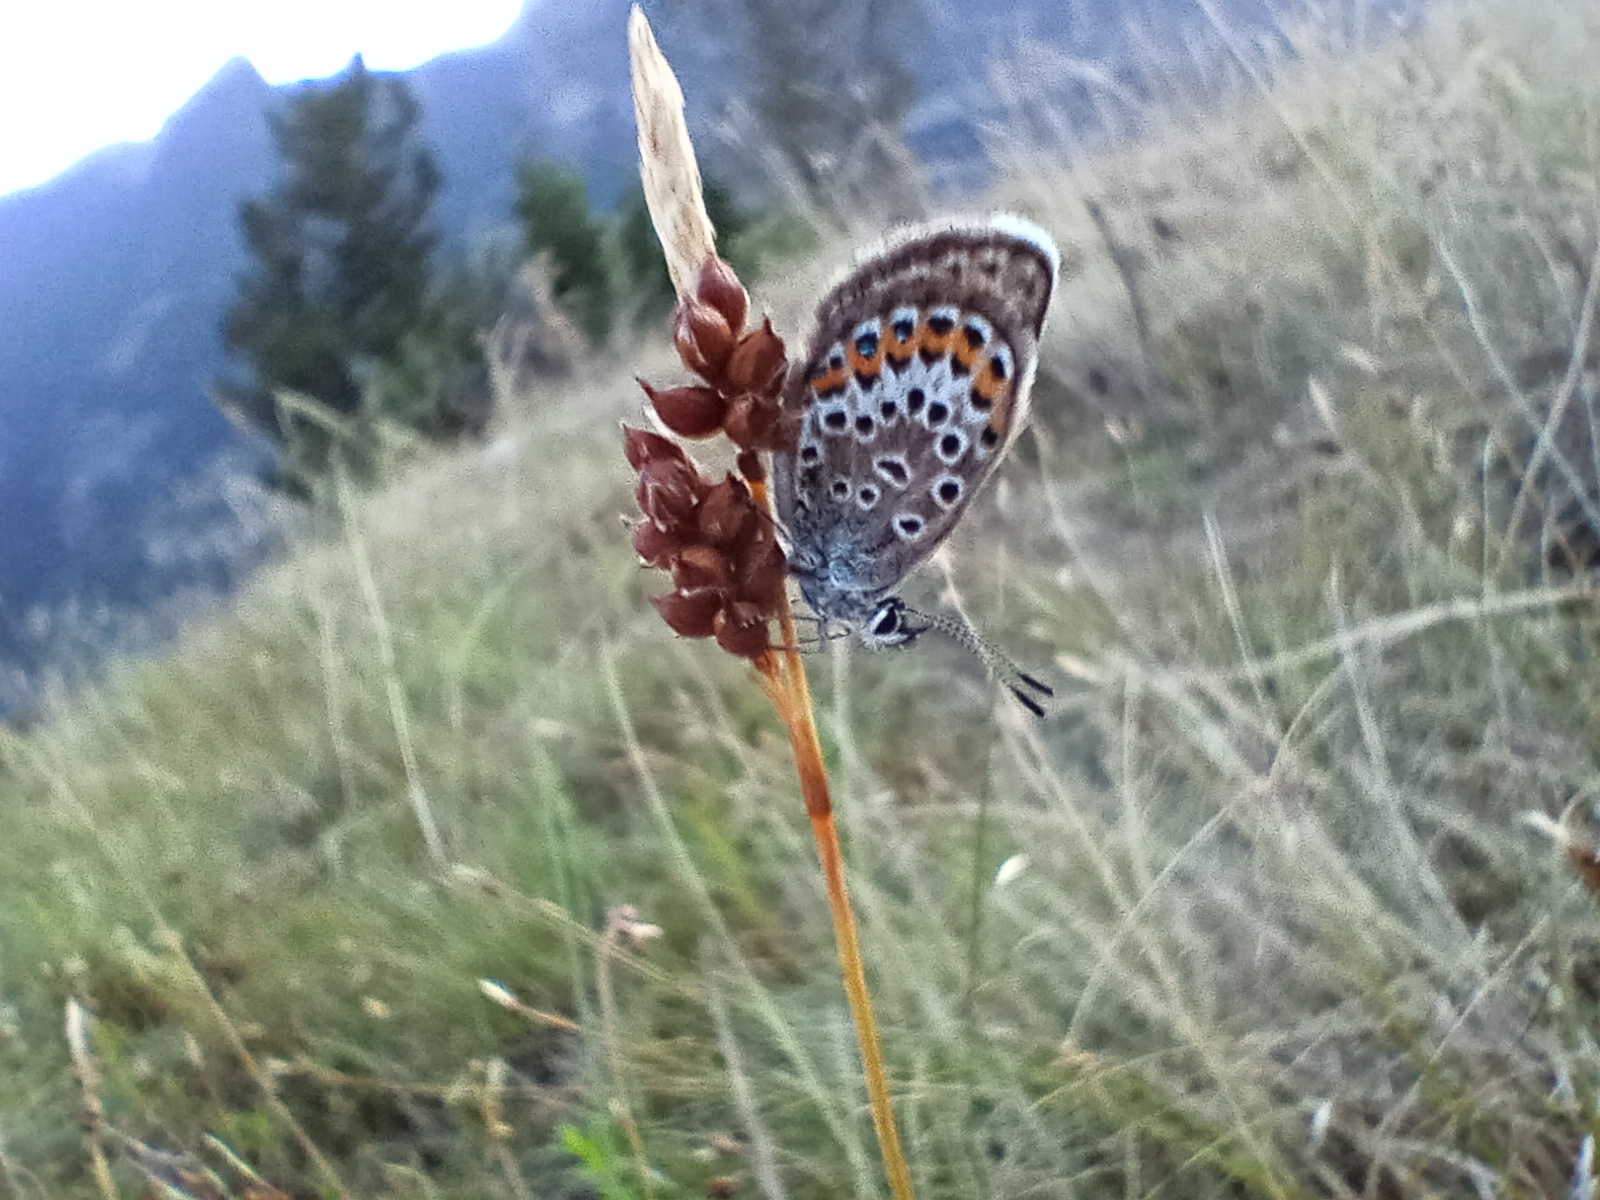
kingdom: Animalia
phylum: Arthropoda
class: Insecta
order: Lepidoptera
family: Lycaenidae
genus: Plebejus
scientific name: Plebejus argus
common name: Silver-studded blue
